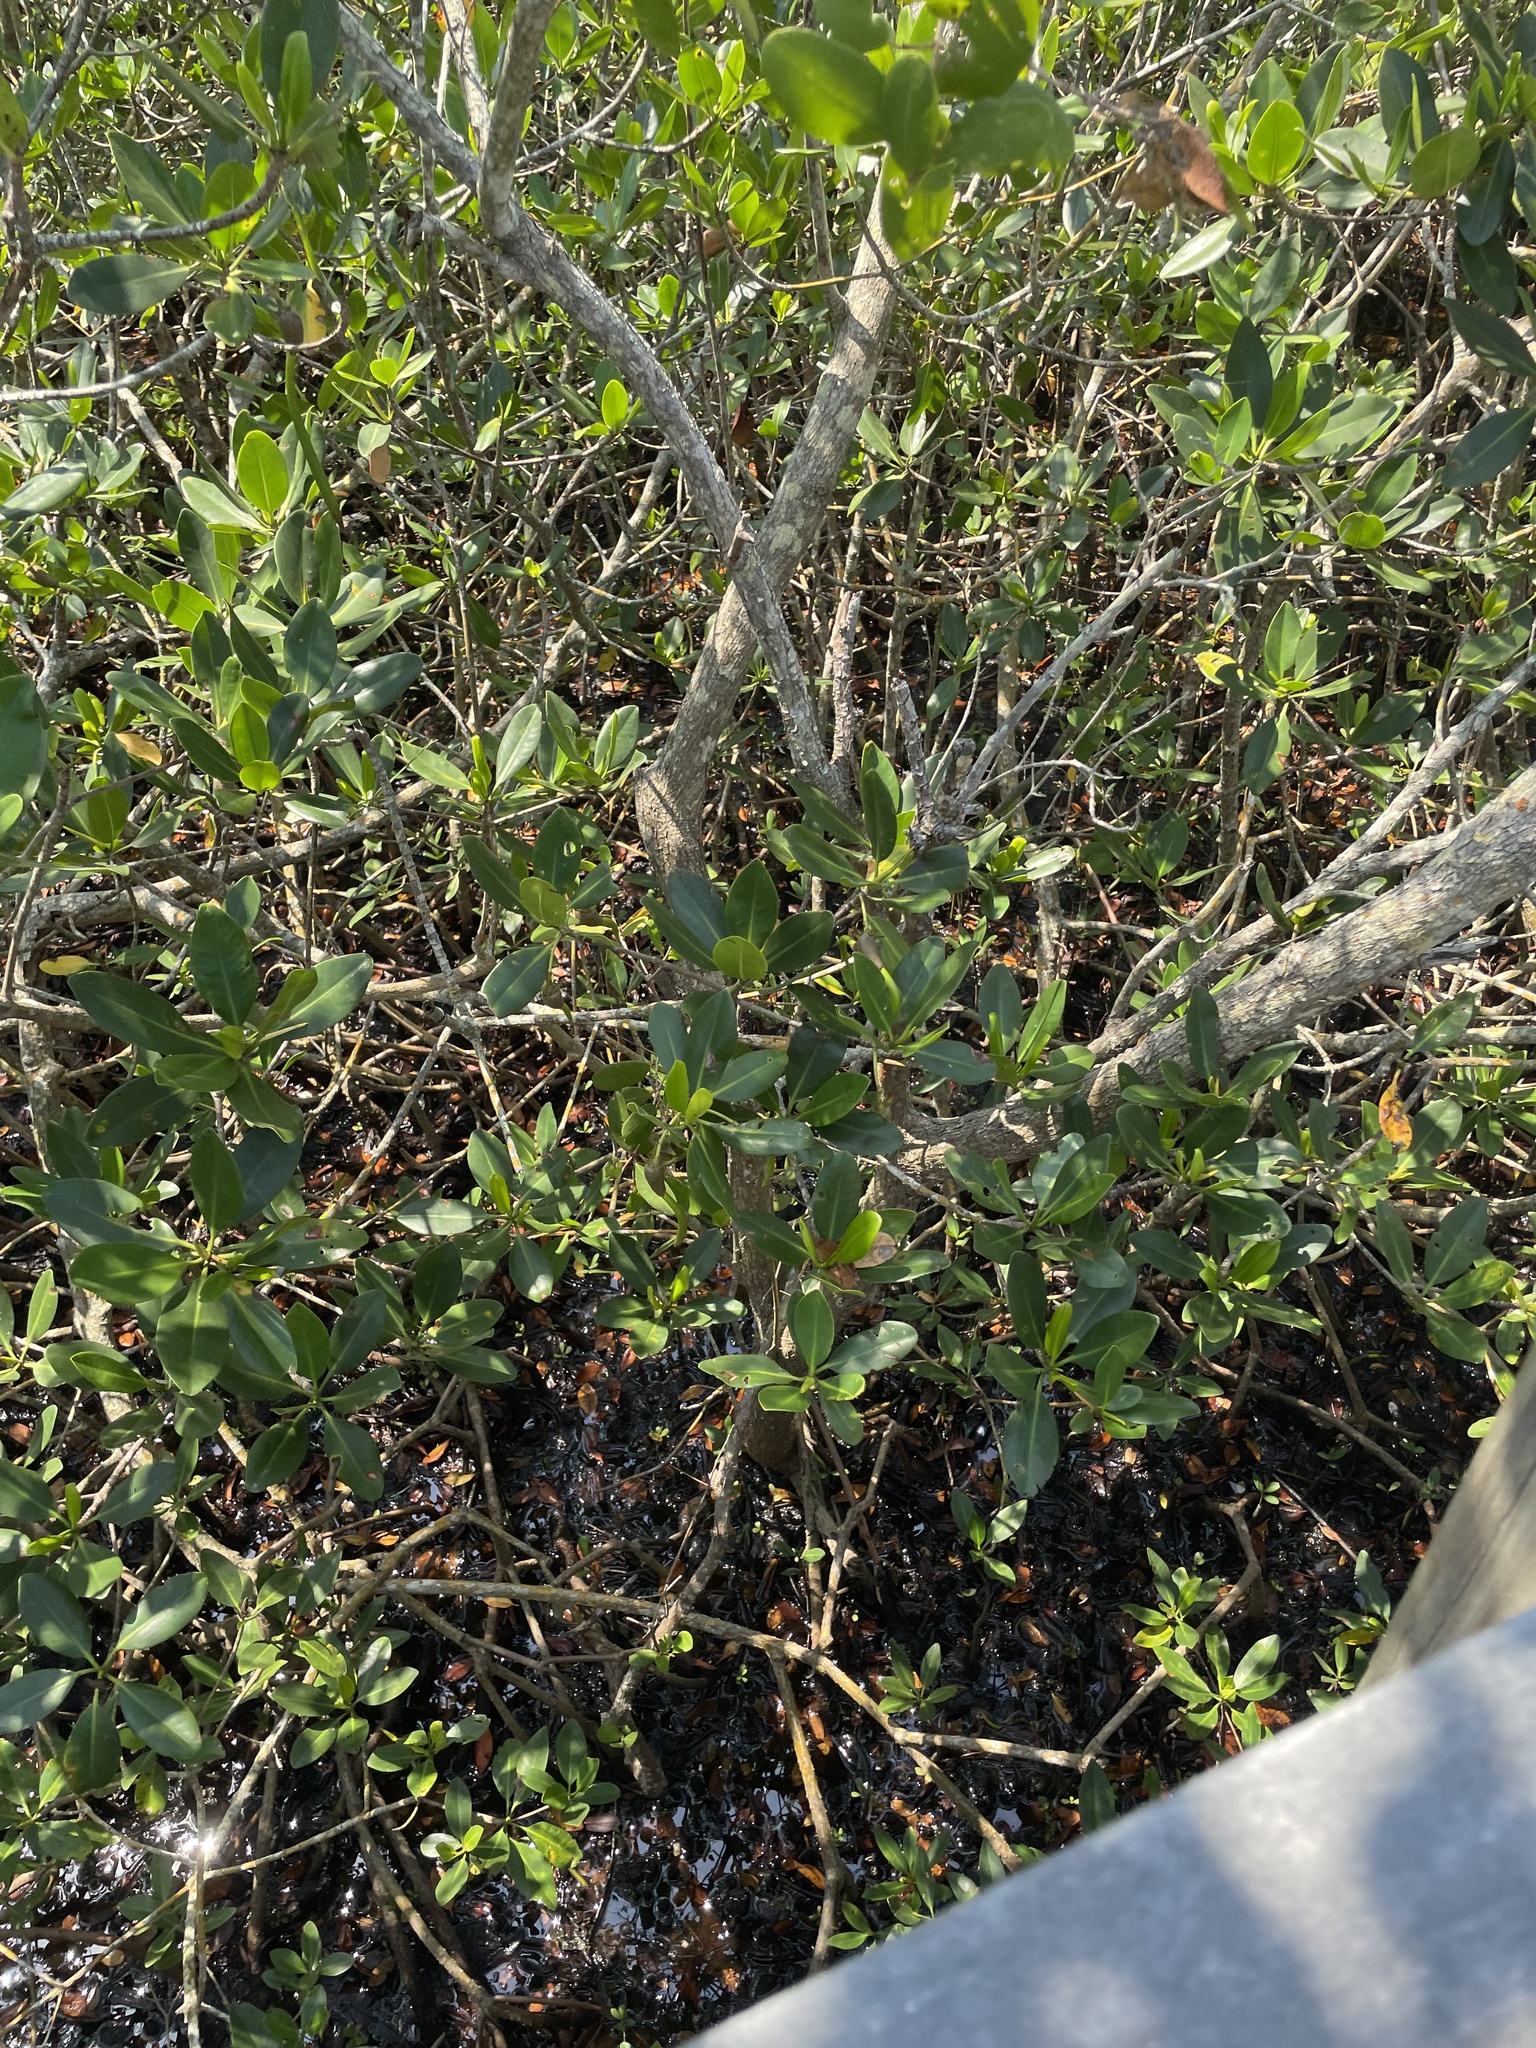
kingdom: Plantae
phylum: Tracheophyta
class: Magnoliopsida
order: Malpighiales
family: Rhizophoraceae
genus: Rhizophora
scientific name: Rhizophora mangle
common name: Red mangrove
